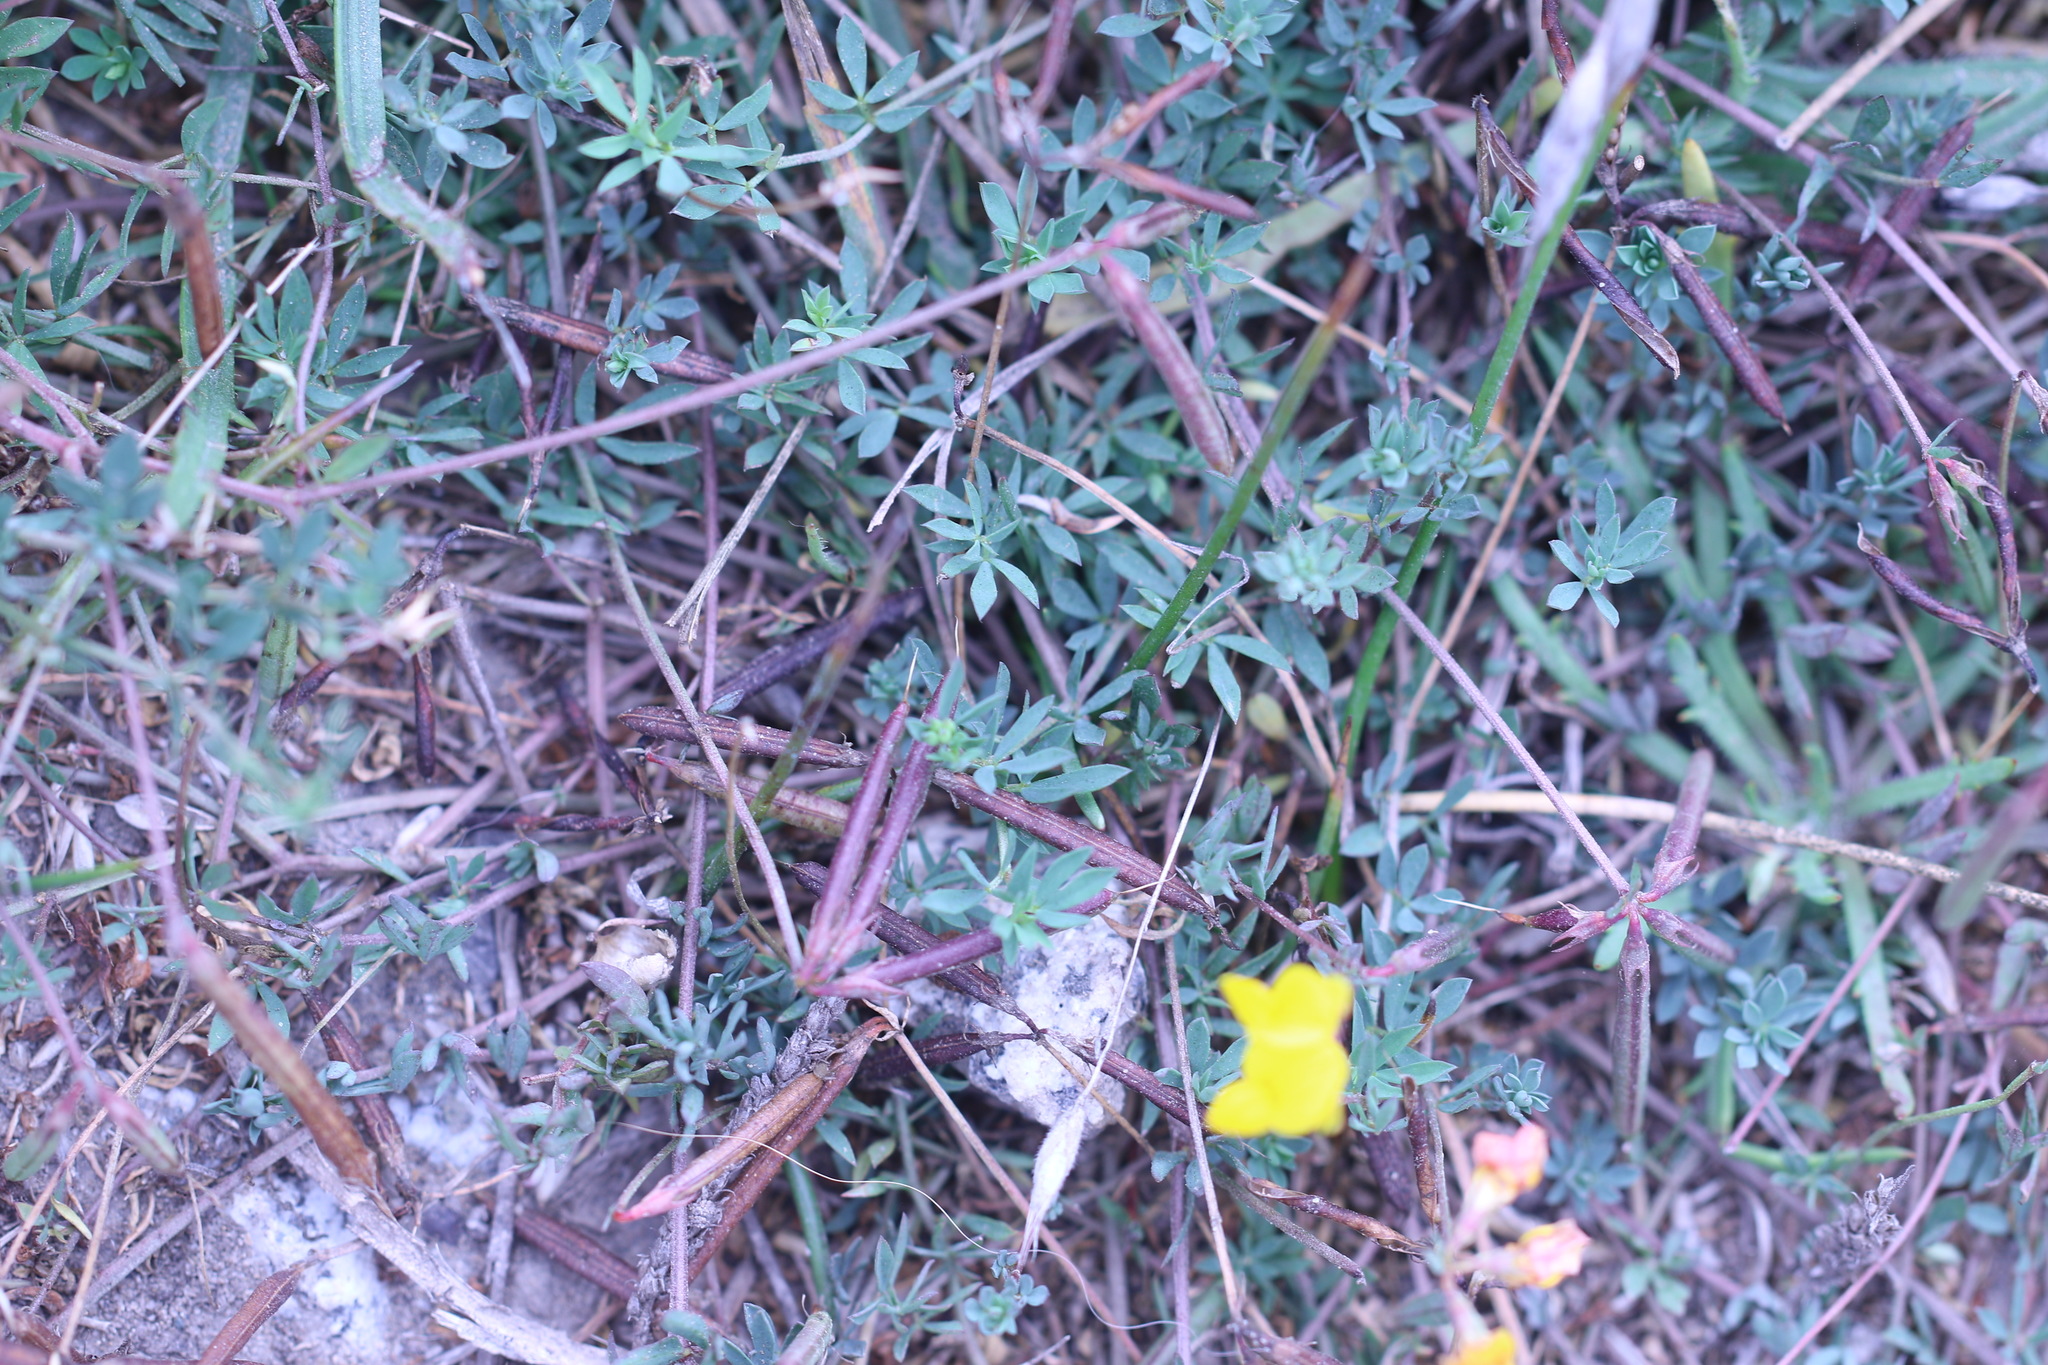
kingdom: Plantae
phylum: Tracheophyta
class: Magnoliopsida
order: Fabales
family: Fabaceae
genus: Lotus
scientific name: Lotus corniculatus
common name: Common bird's-foot-trefoil
